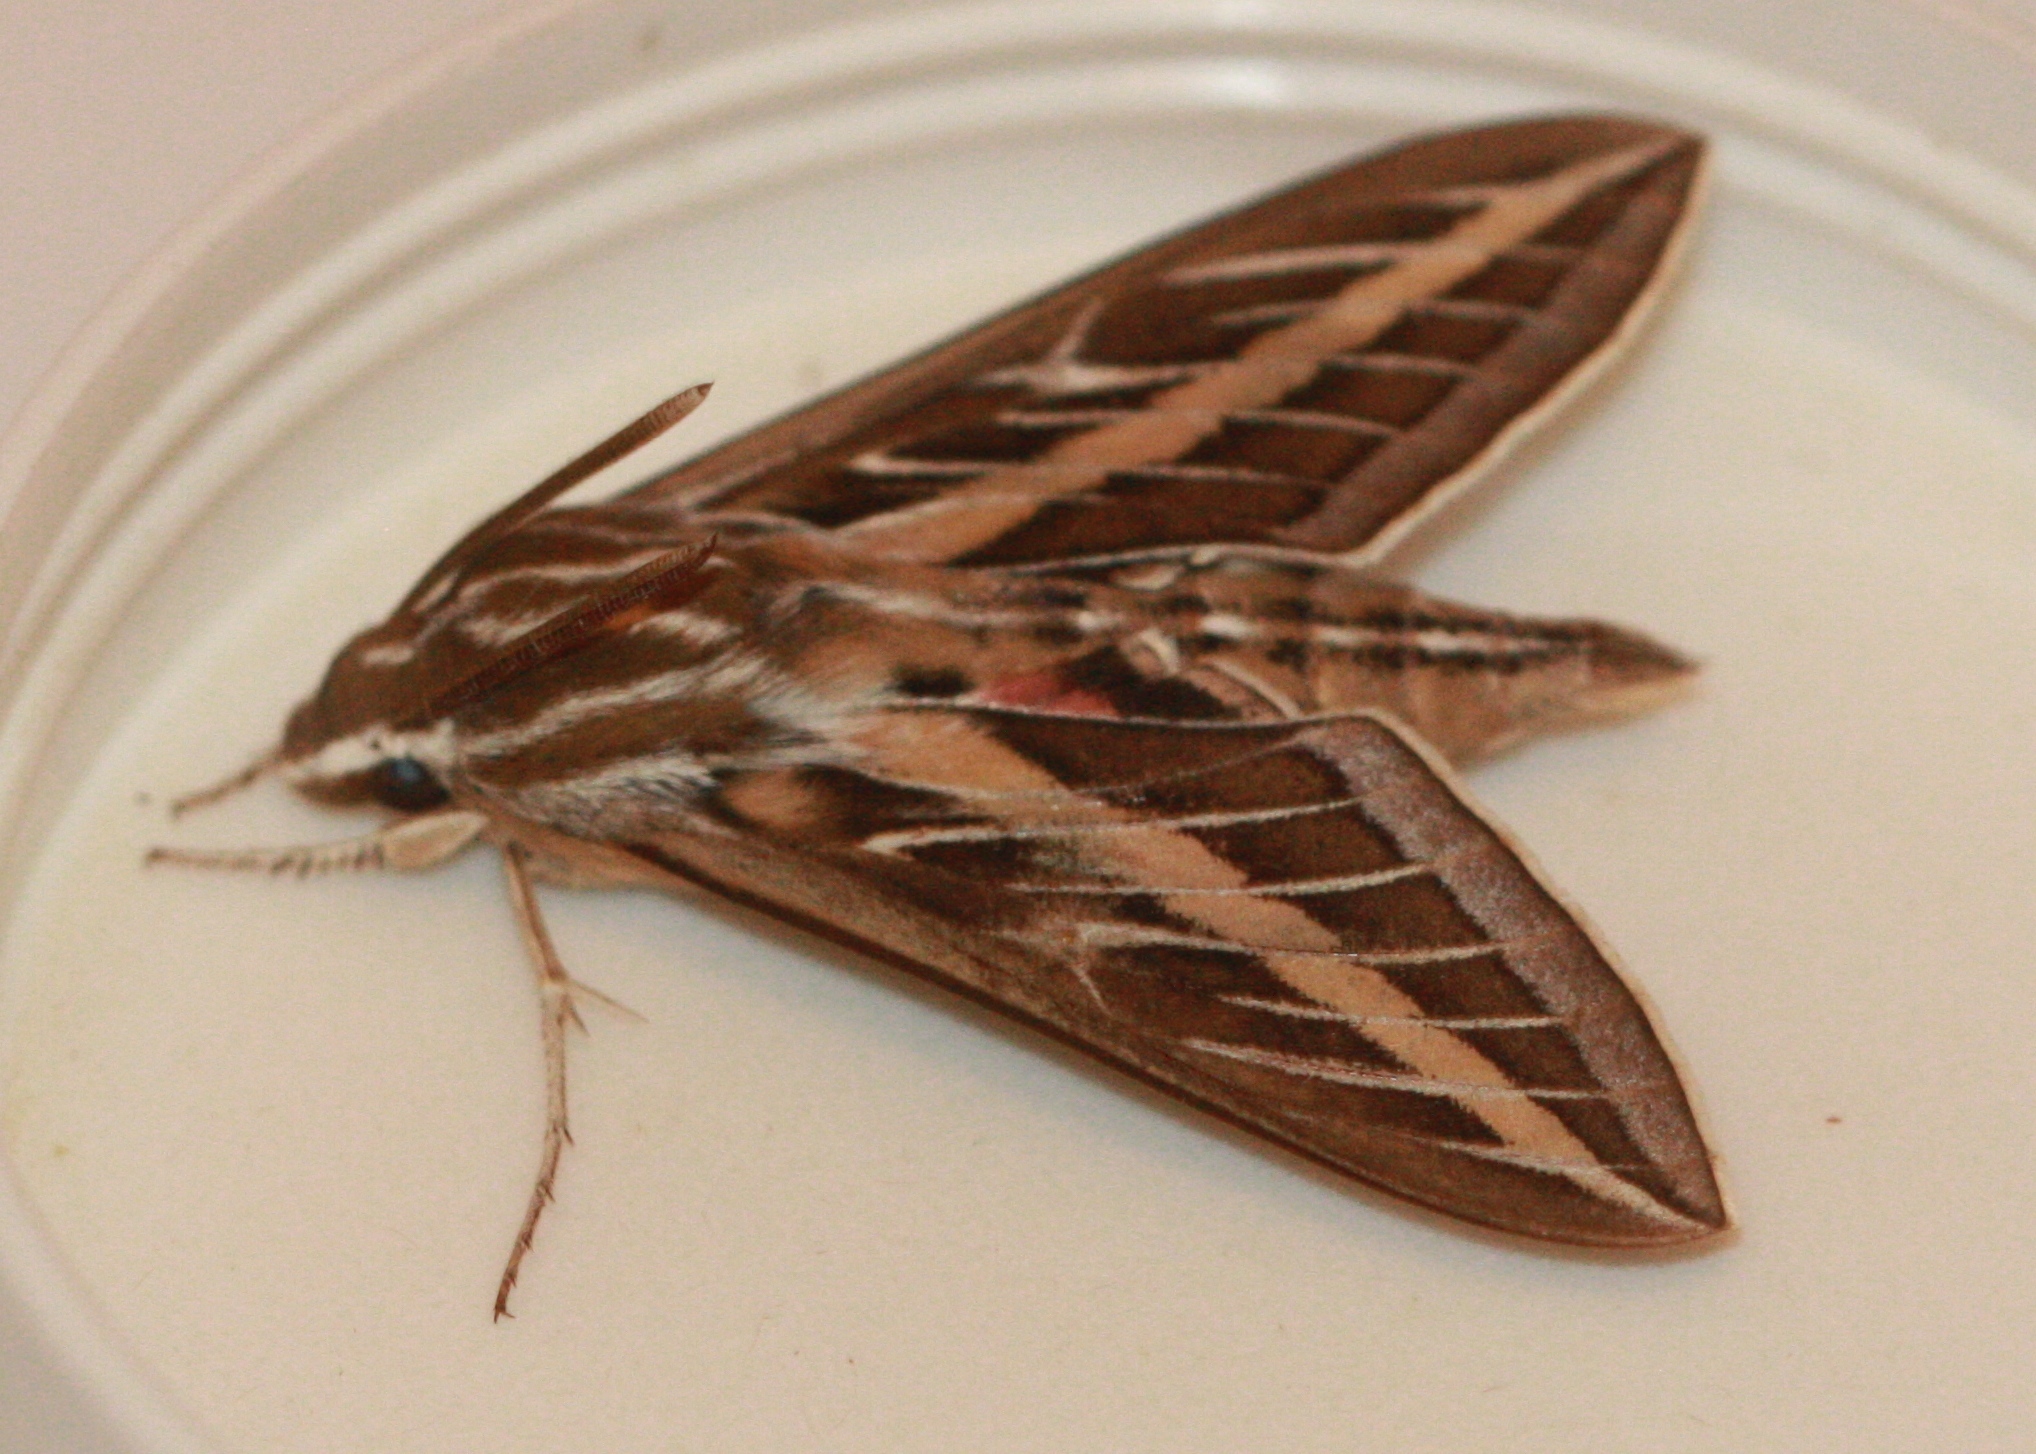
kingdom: Animalia
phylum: Arthropoda
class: Insecta
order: Lepidoptera
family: Sphingidae
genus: Hyles
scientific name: Hyles lineata
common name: White-lined sphinx
